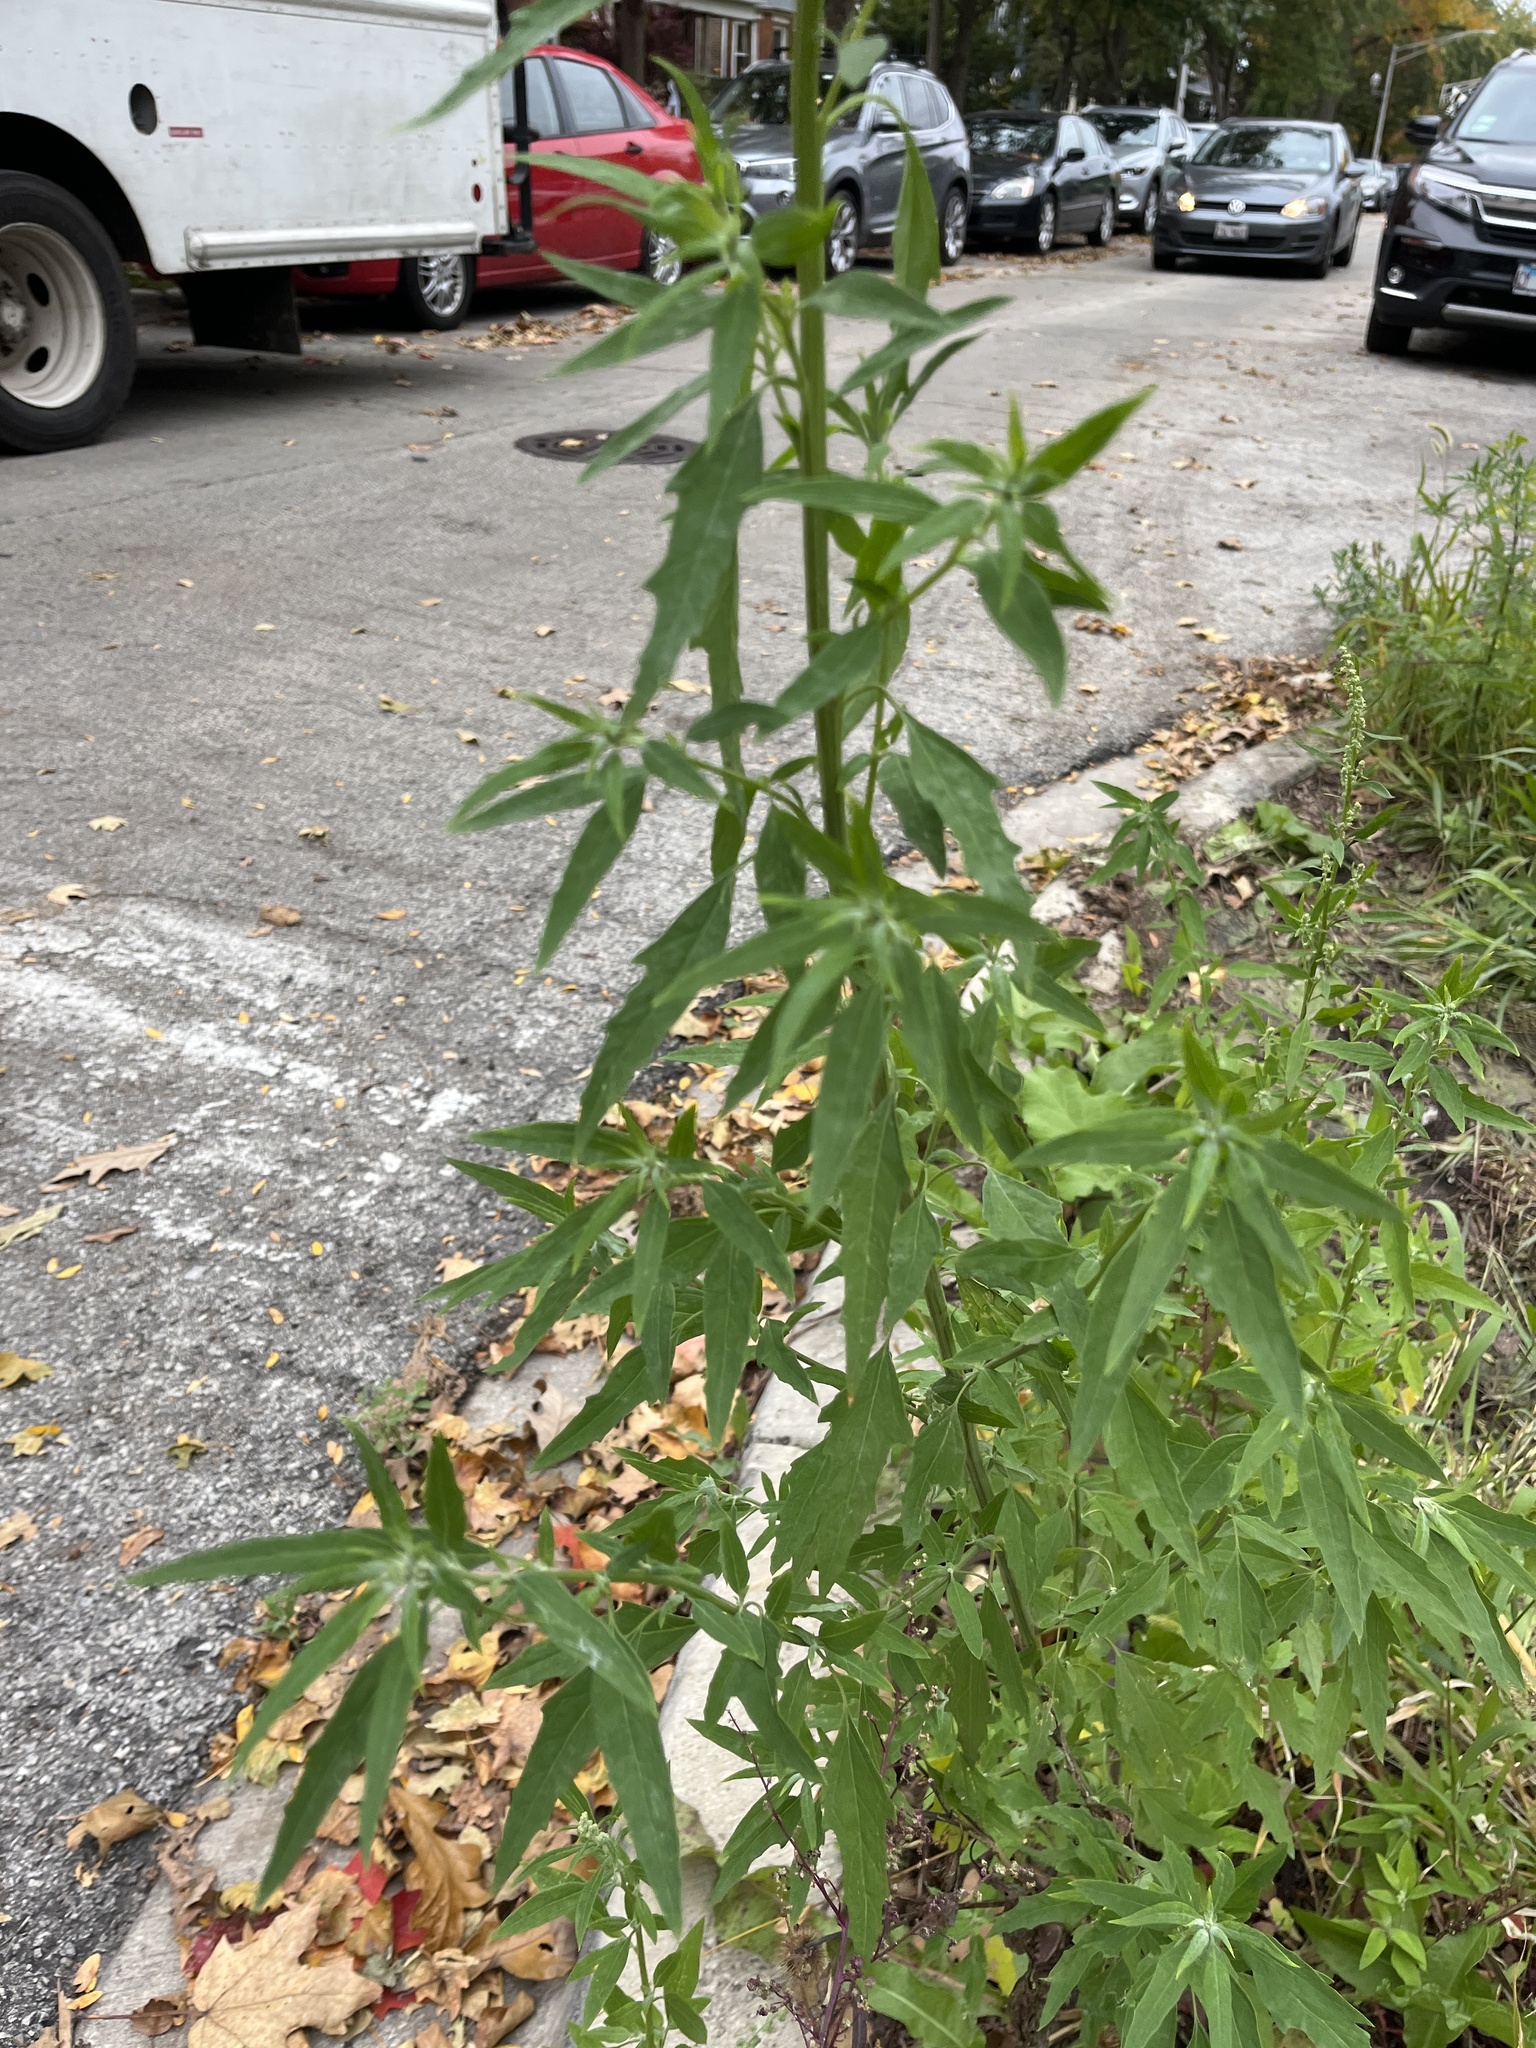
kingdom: Plantae
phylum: Tracheophyta
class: Magnoliopsida
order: Caryophyllales
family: Amaranthaceae
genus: Chenopodium
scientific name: Chenopodium album
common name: Fat-hen
